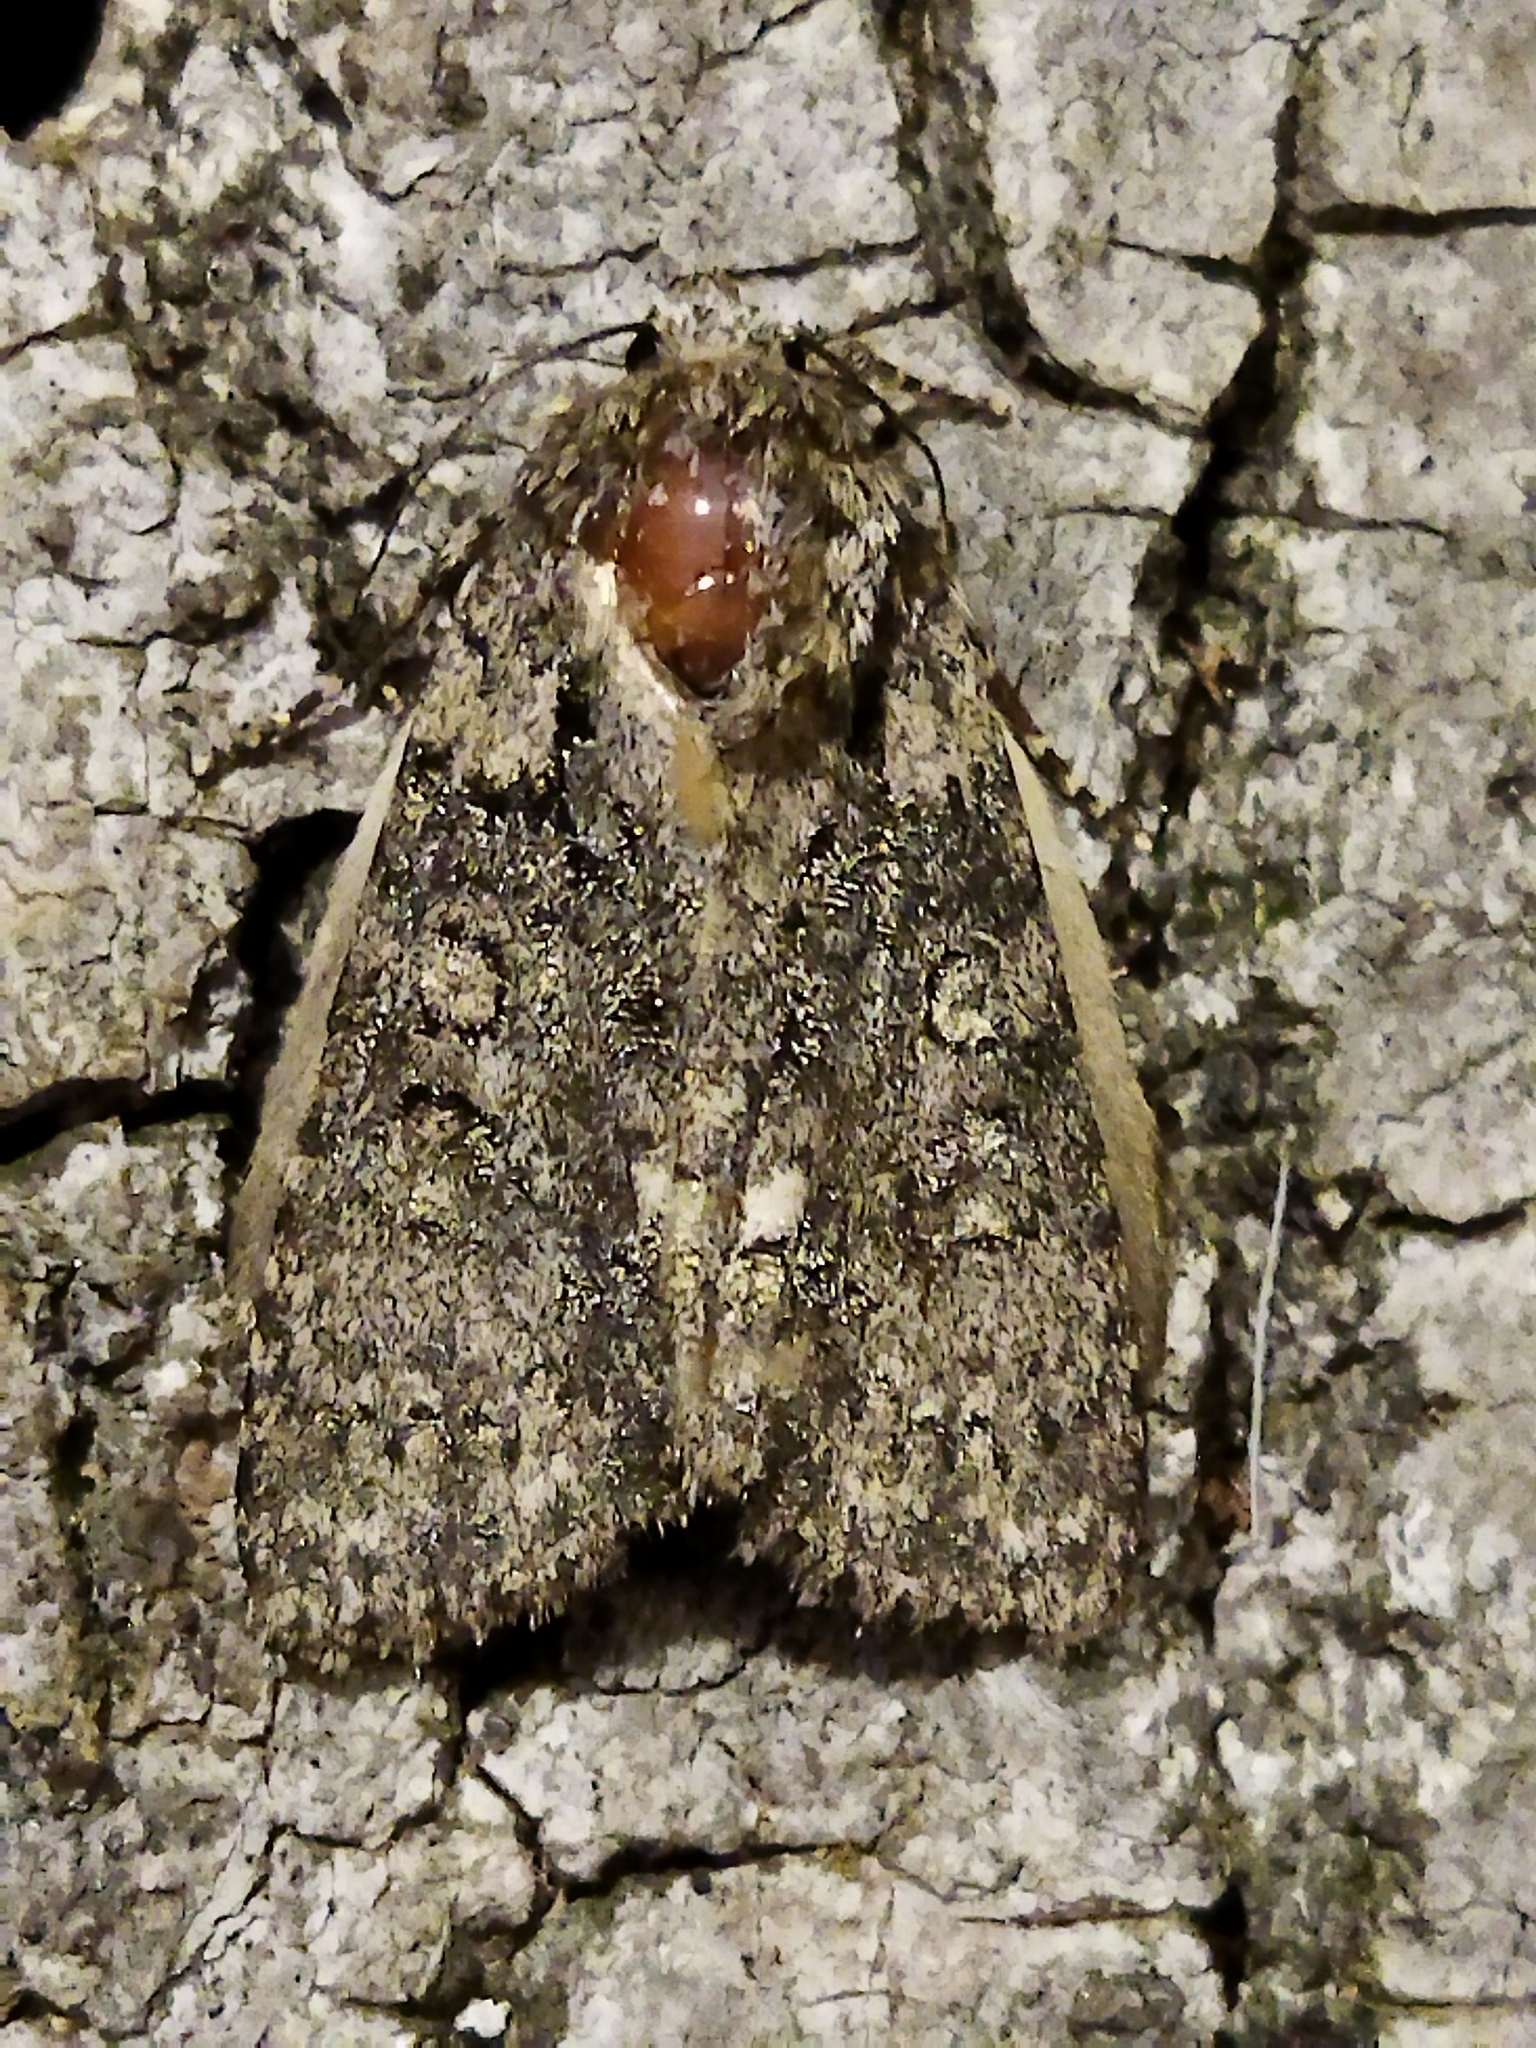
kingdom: Animalia
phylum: Arthropoda
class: Insecta
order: Lepidoptera
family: Noctuidae
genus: Acronicta
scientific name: Acronicta rumicis
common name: Knot grass
